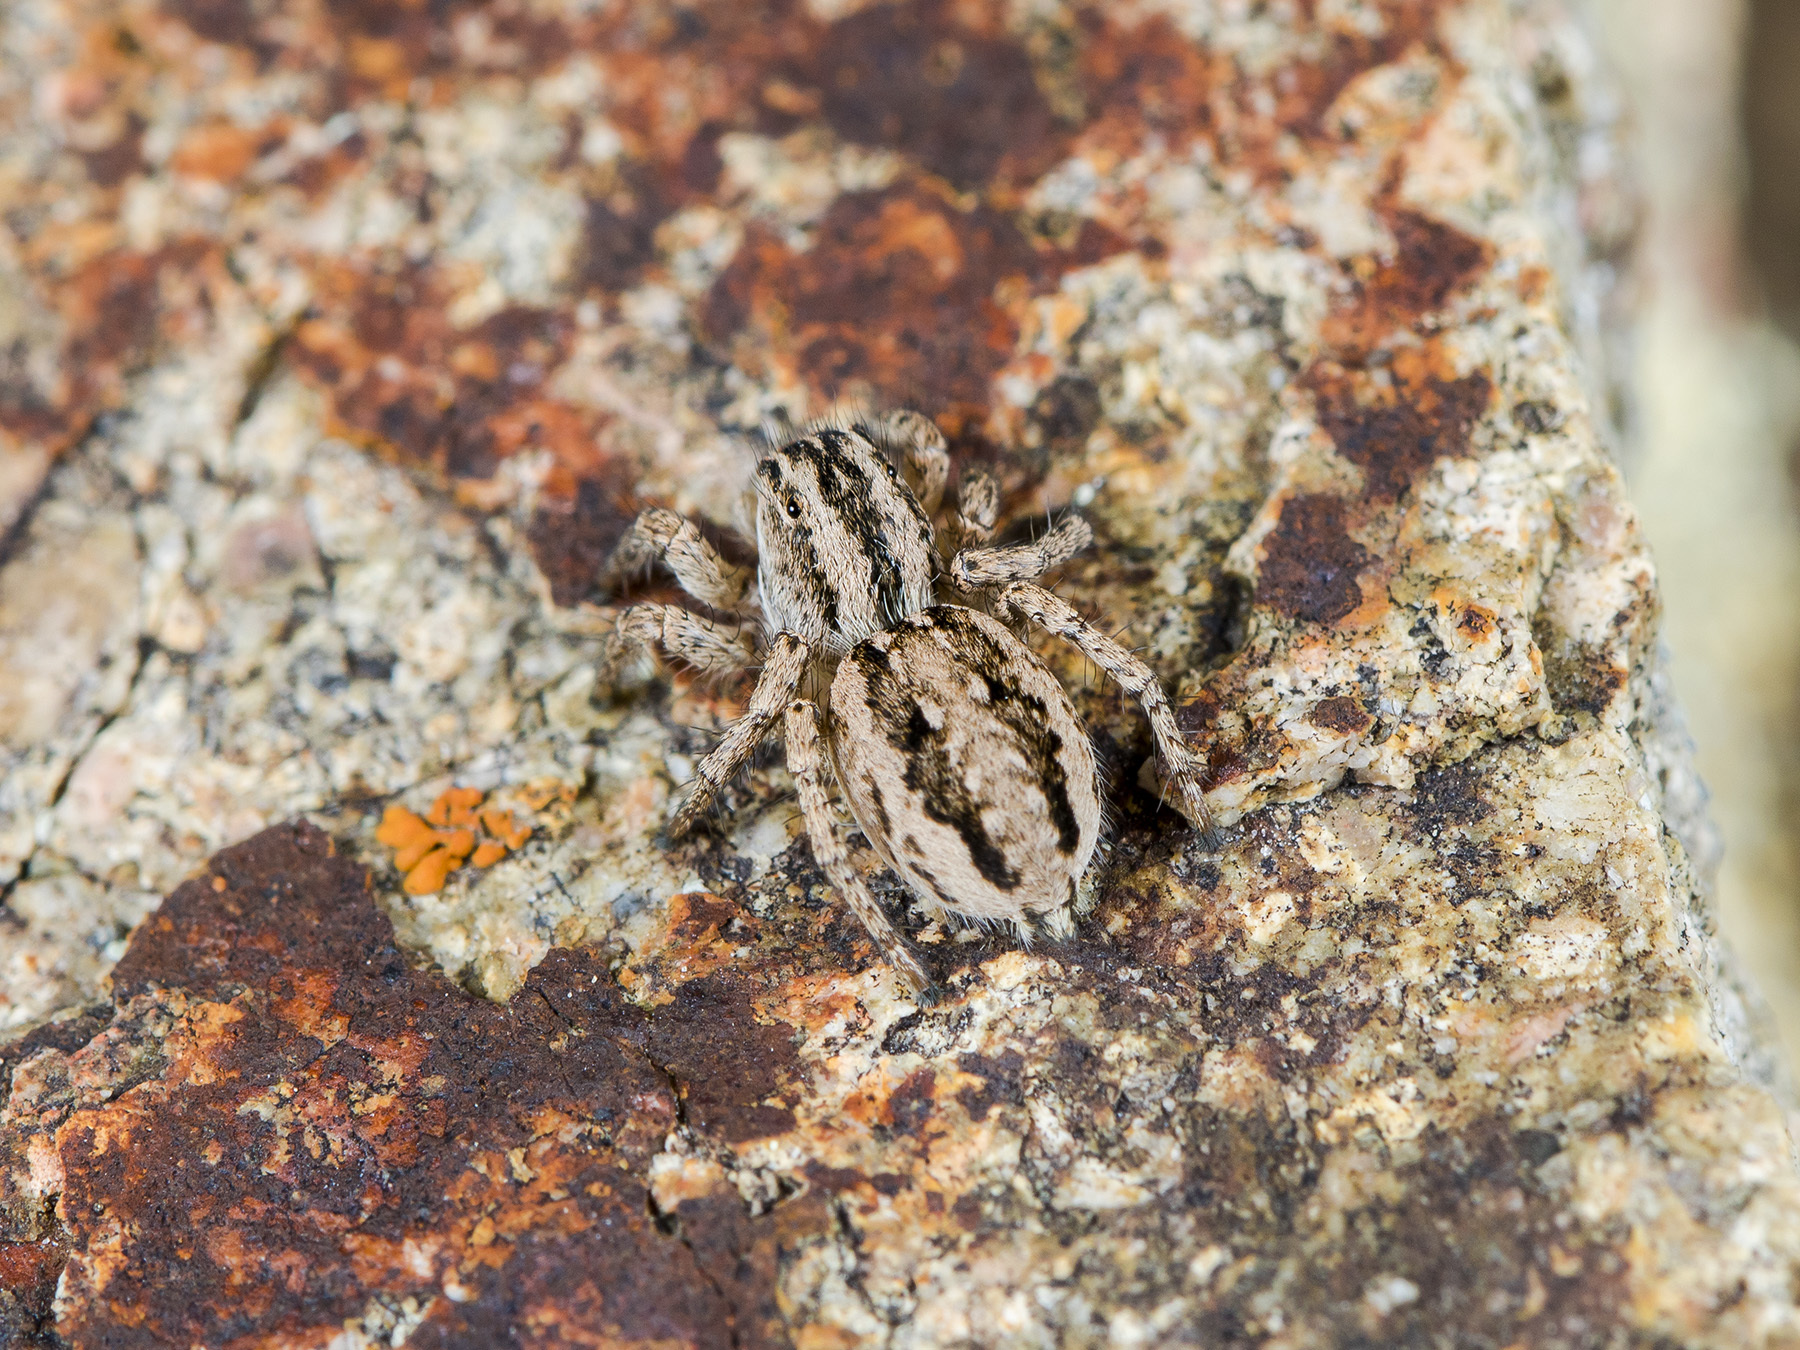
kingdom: Animalia
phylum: Arthropoda
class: Arachnida
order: Araneae
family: Salticidae
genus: Aelurillus
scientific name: Aelurillus m-nigrum
